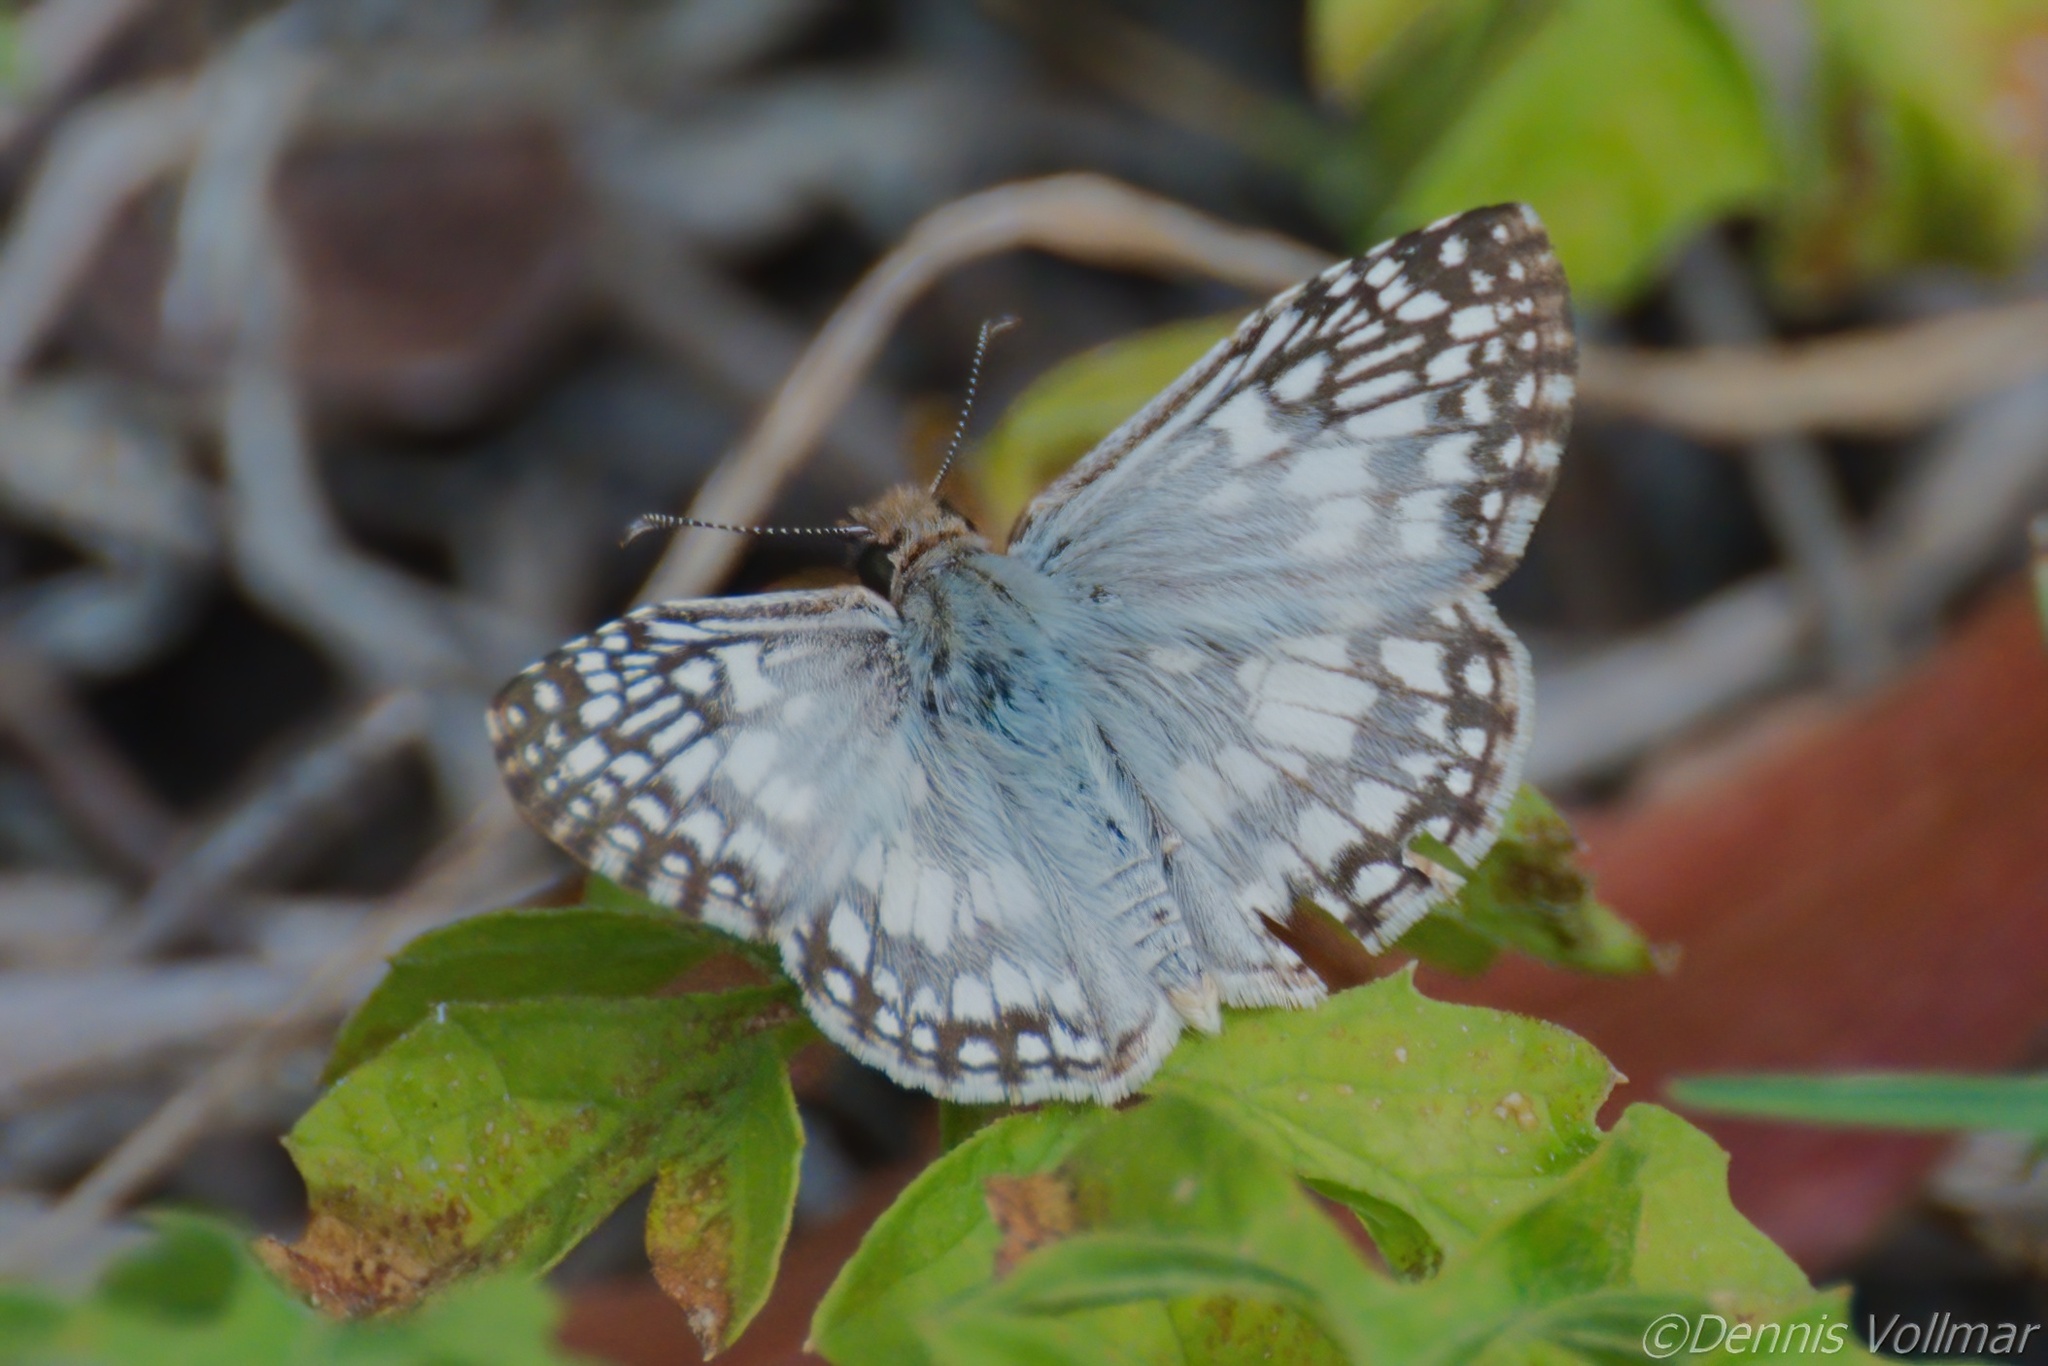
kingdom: Animalia
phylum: Arthropoda
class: Insecta
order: Lepidoptera
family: Hesperiidae
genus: Pyrgus
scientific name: Pyrgus oileus
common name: Tropical checkered-skipper
